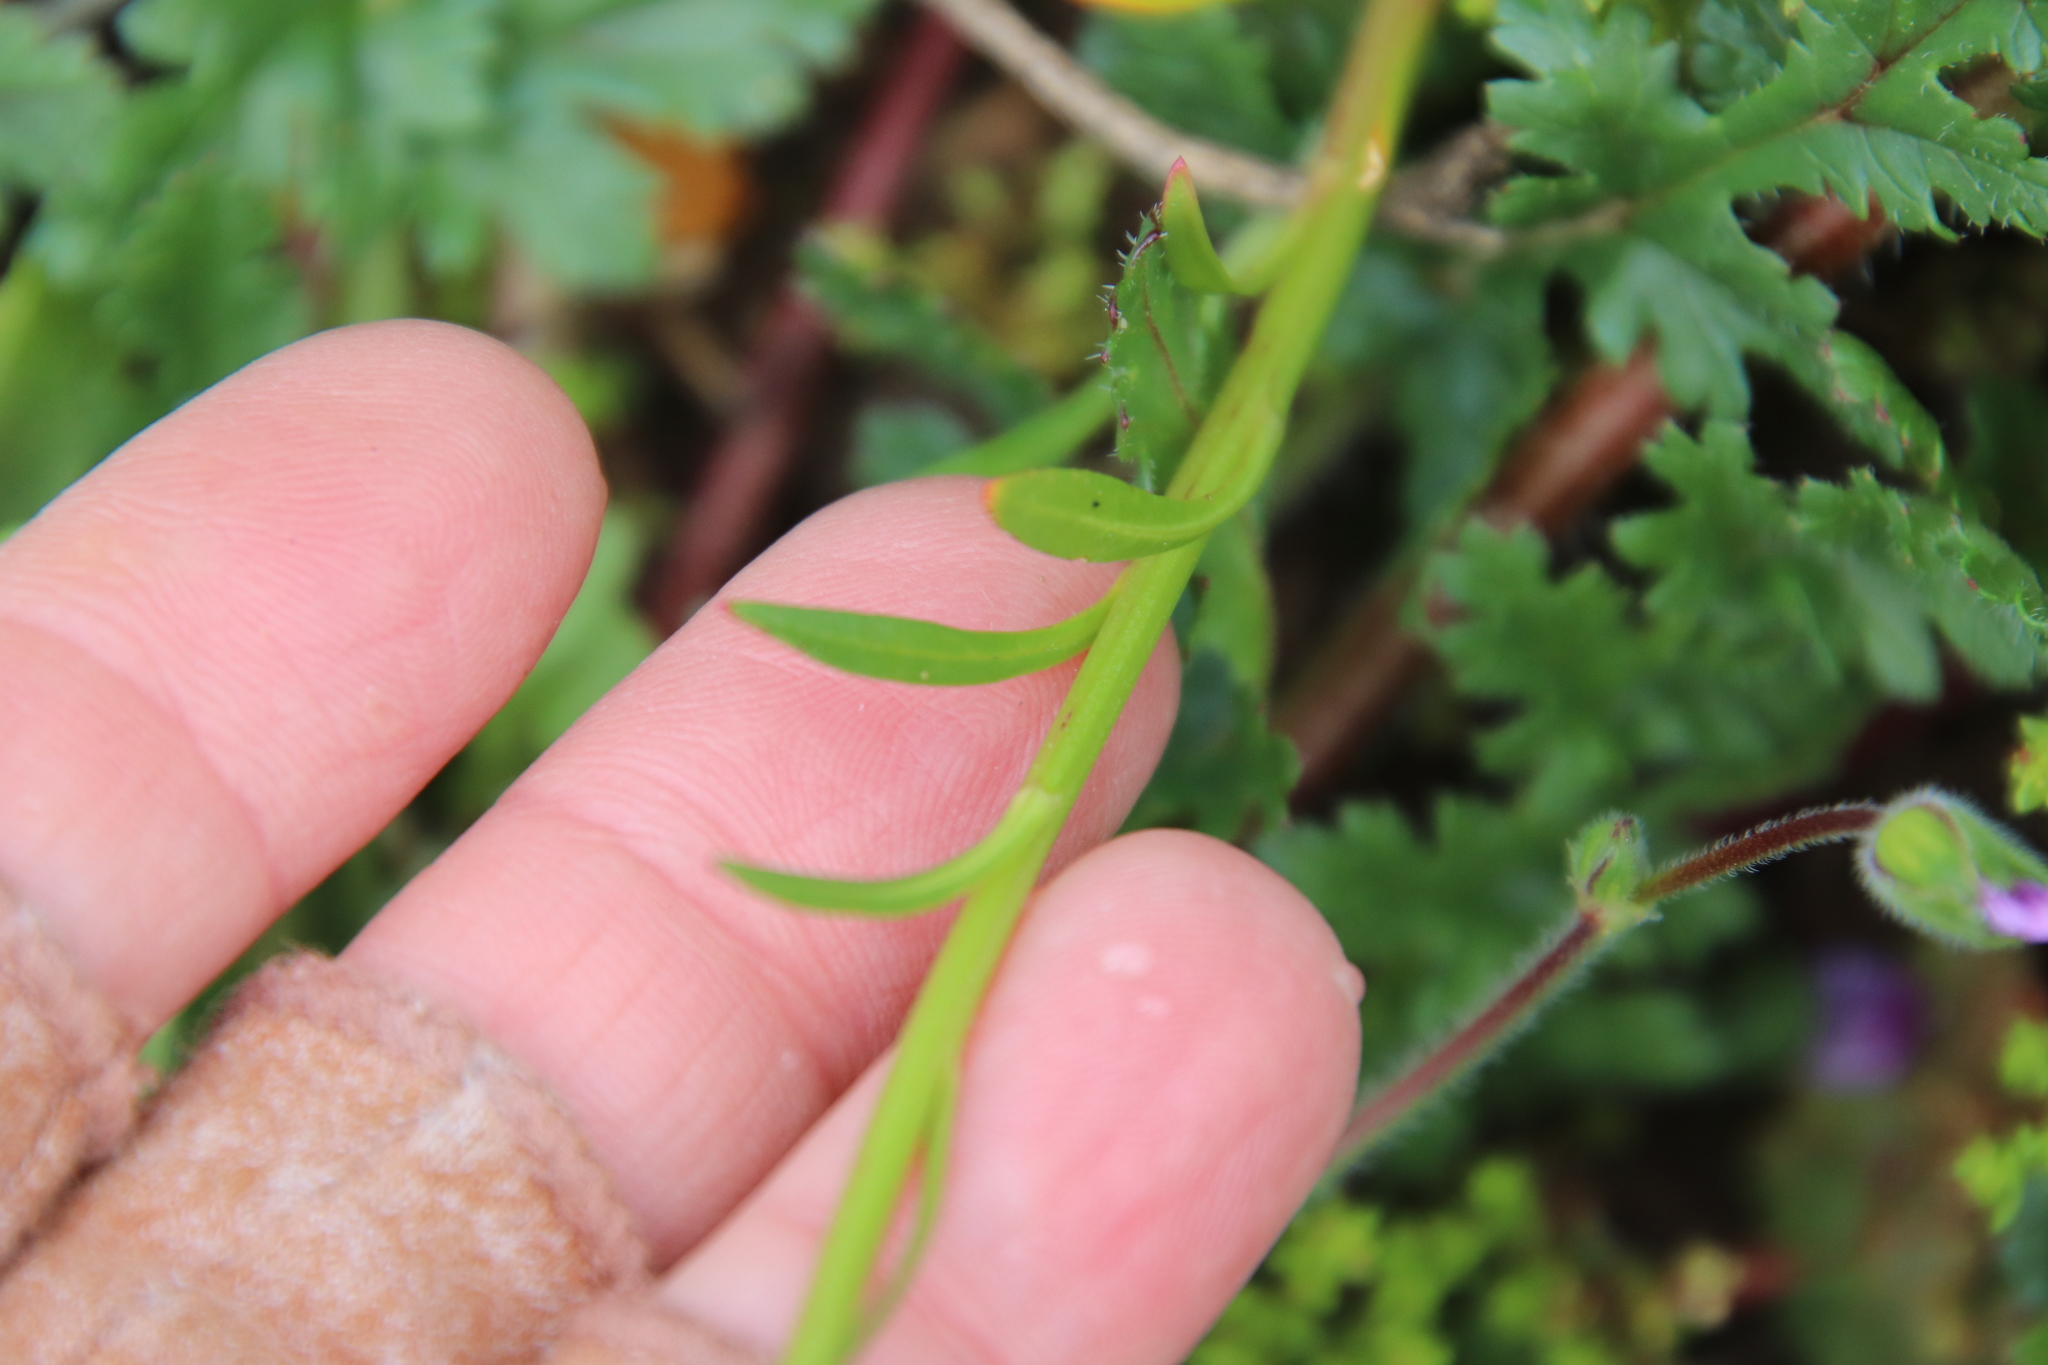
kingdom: Plantae
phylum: Tracheophyta
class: Magnoliopsida
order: Caryophyllales
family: Montiaceae
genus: Calandrinia
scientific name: Calandrinia menziesii
